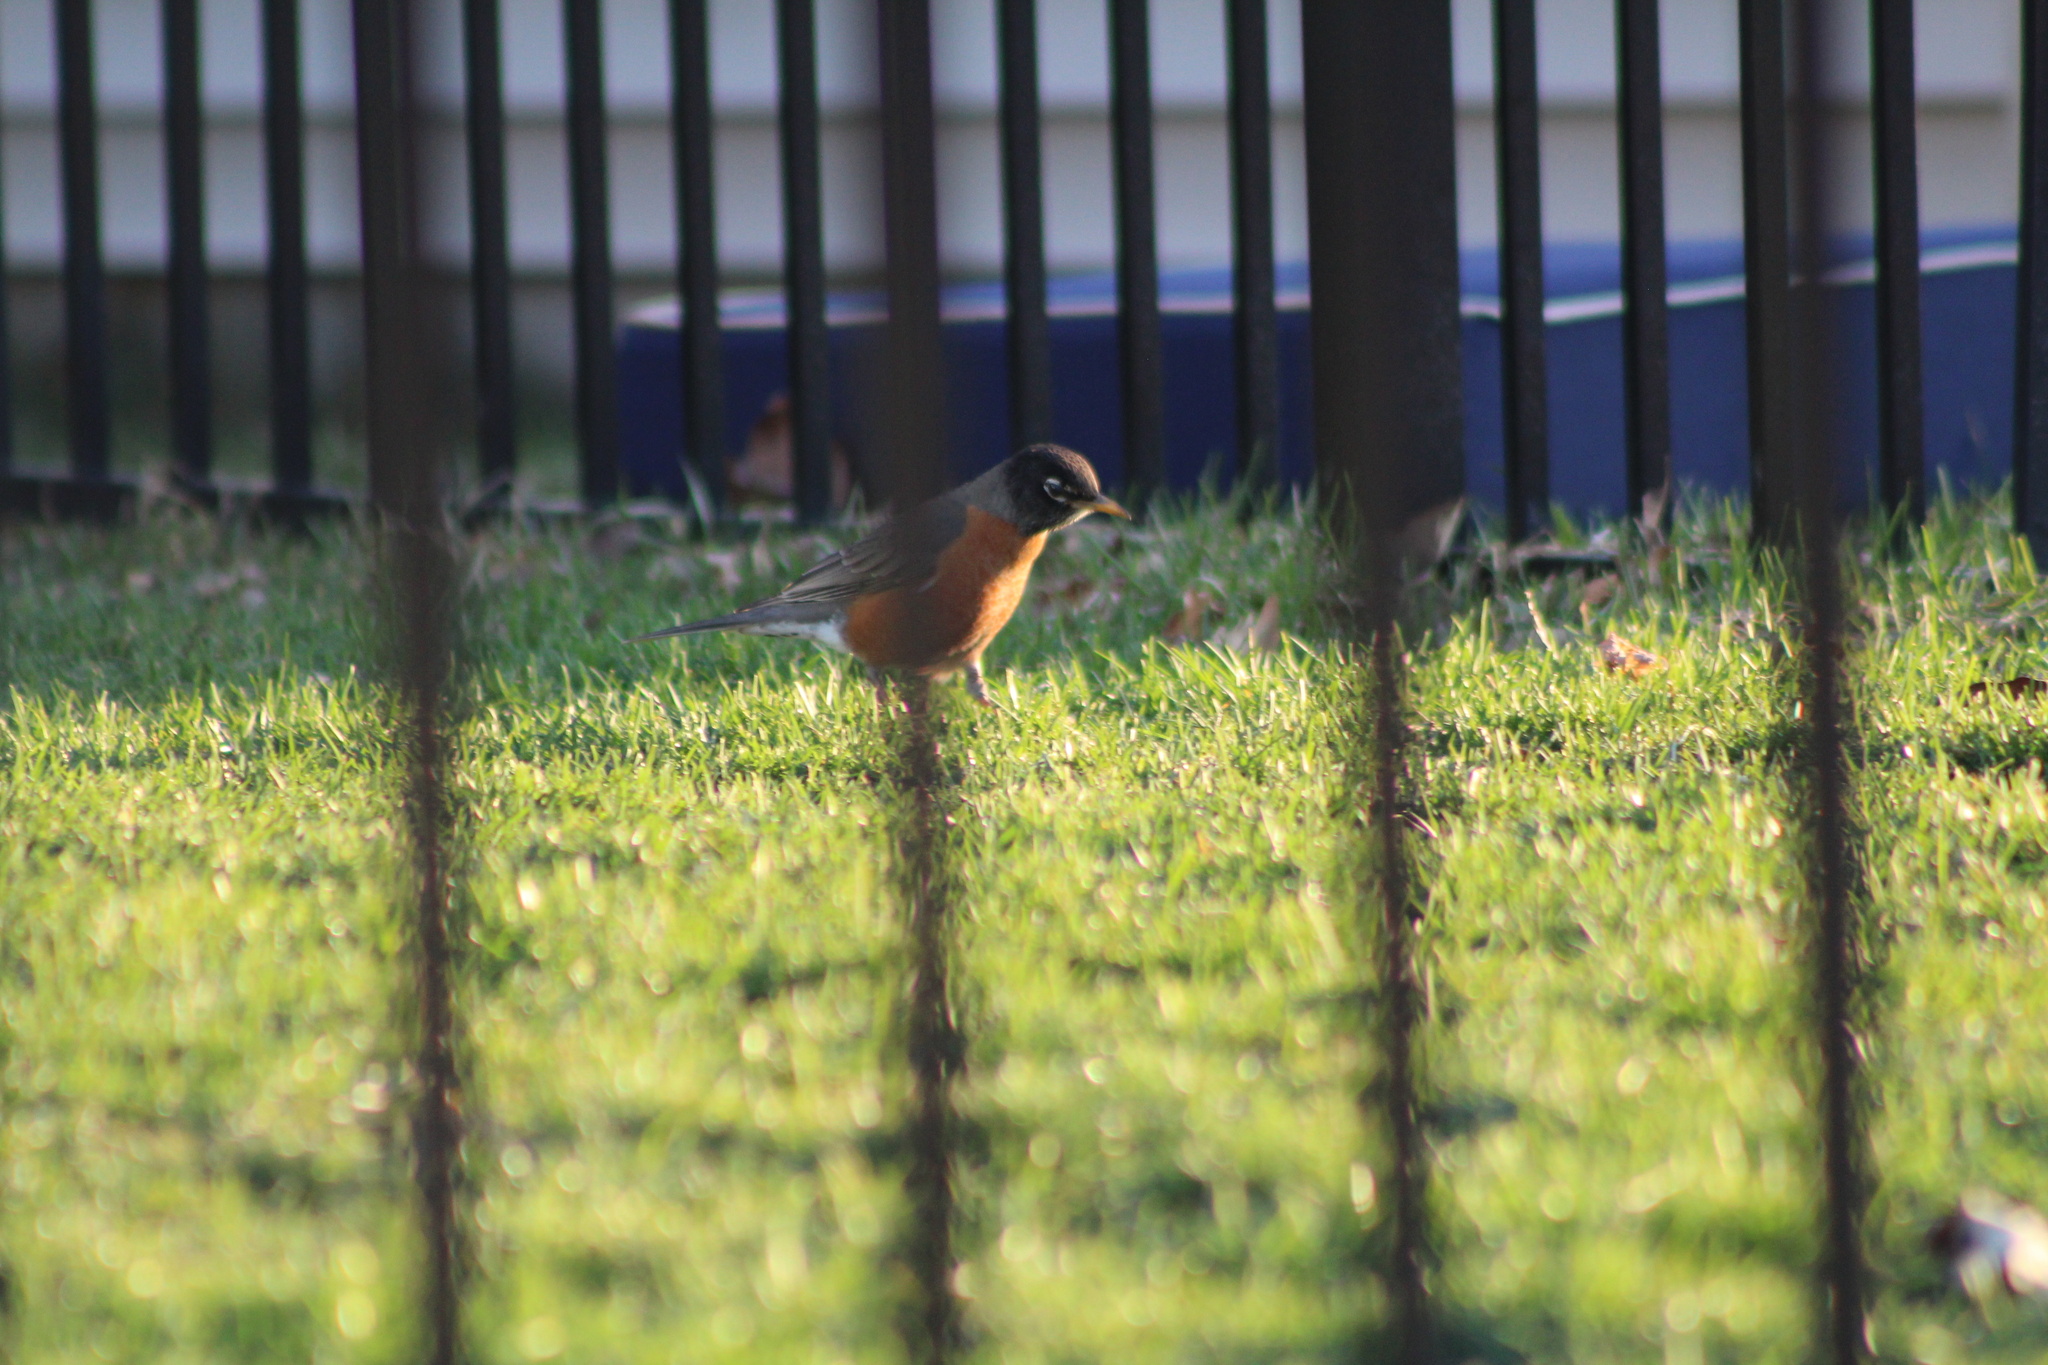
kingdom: Animalia
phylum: Chordata
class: Aves
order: Passeriformes
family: Turdidae
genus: Turdus
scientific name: Turdus migratorius
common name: American robin
